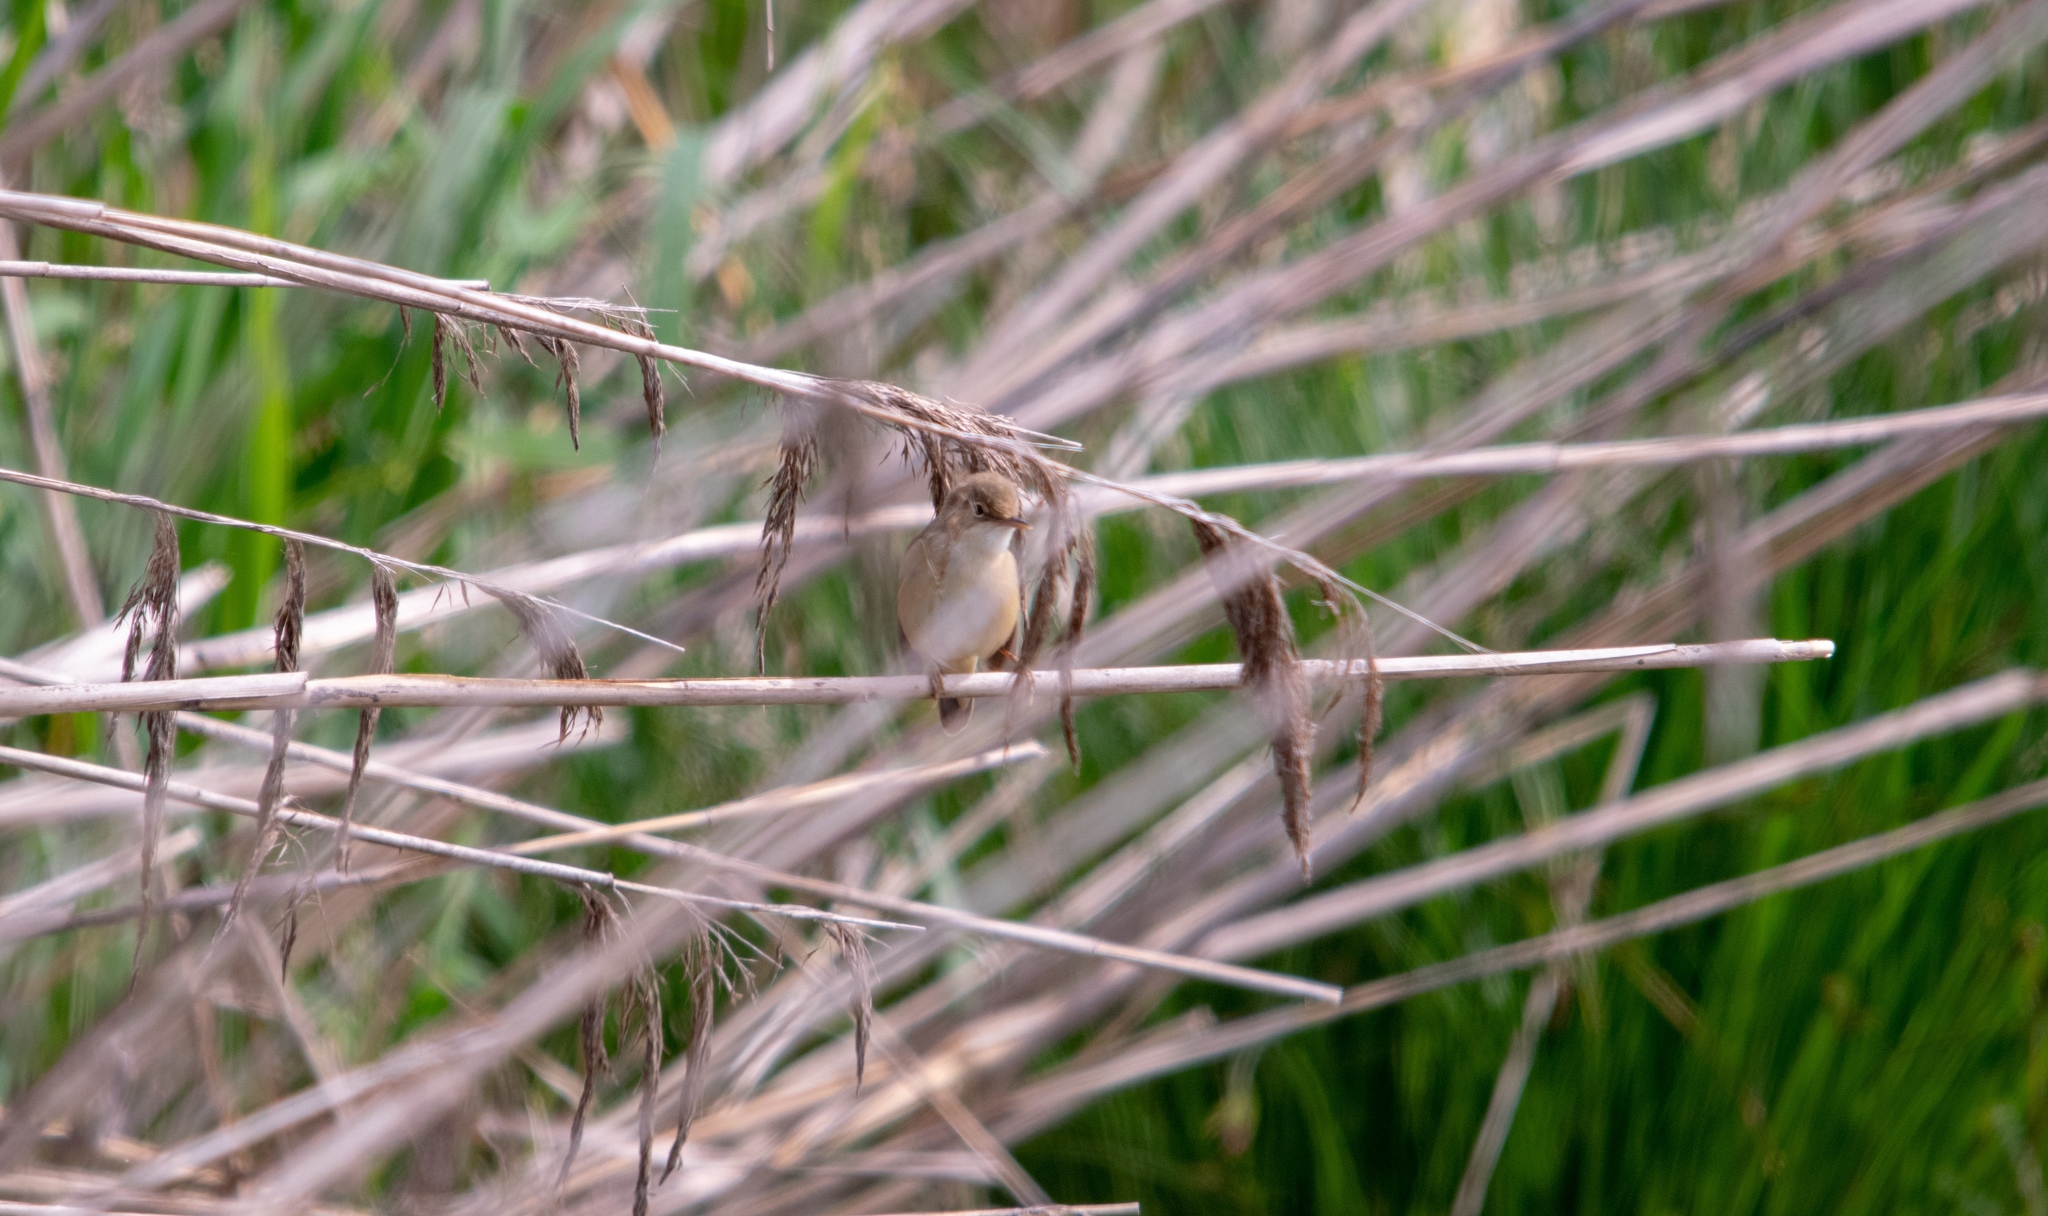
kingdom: Animalia
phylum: Chordata
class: Aves
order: Passeriformes
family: Acrocephalidae
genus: Acrocephalus
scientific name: Acrocephalus scirpaceus
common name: Eurasian reed warbler
